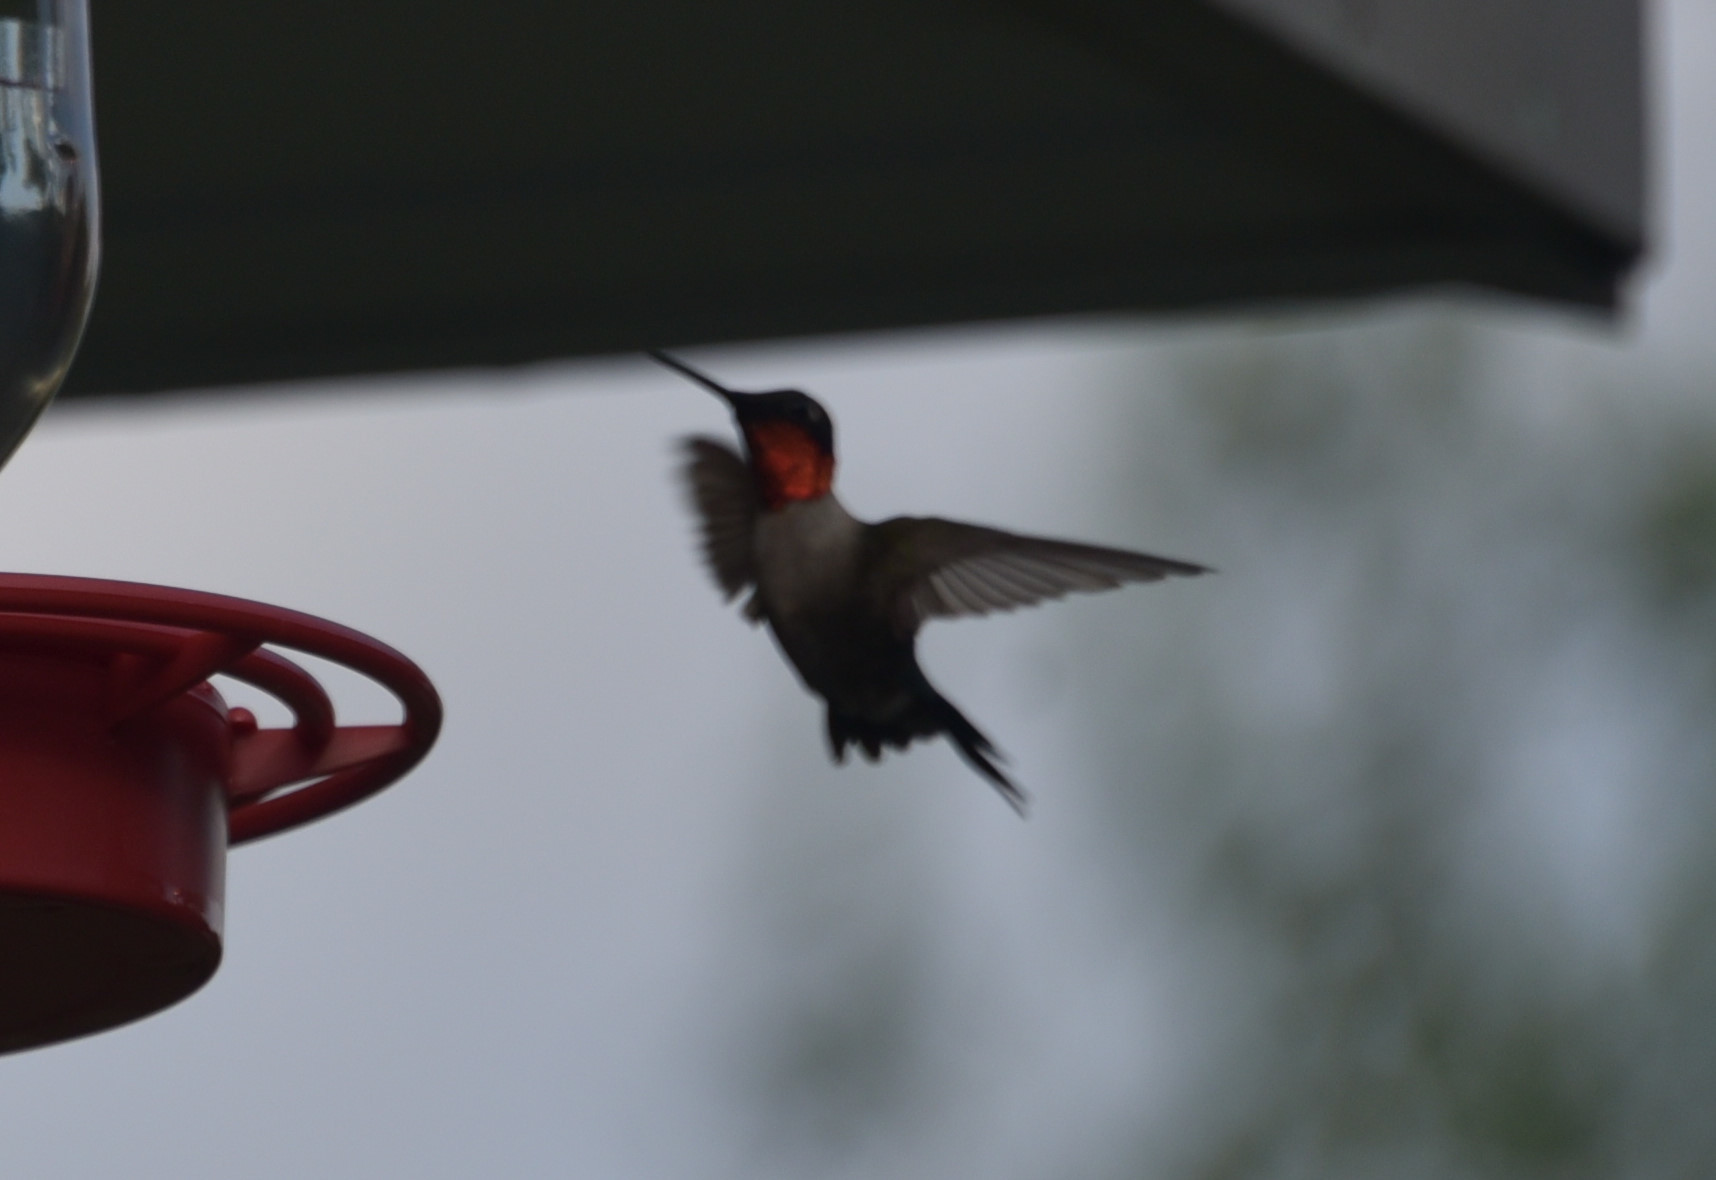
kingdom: Animalia
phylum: Chordata
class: Aves
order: Apodiformes
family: Trochilidae
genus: Archilochus
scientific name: Archilochus colubris
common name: Ruby-throated hummingbird
